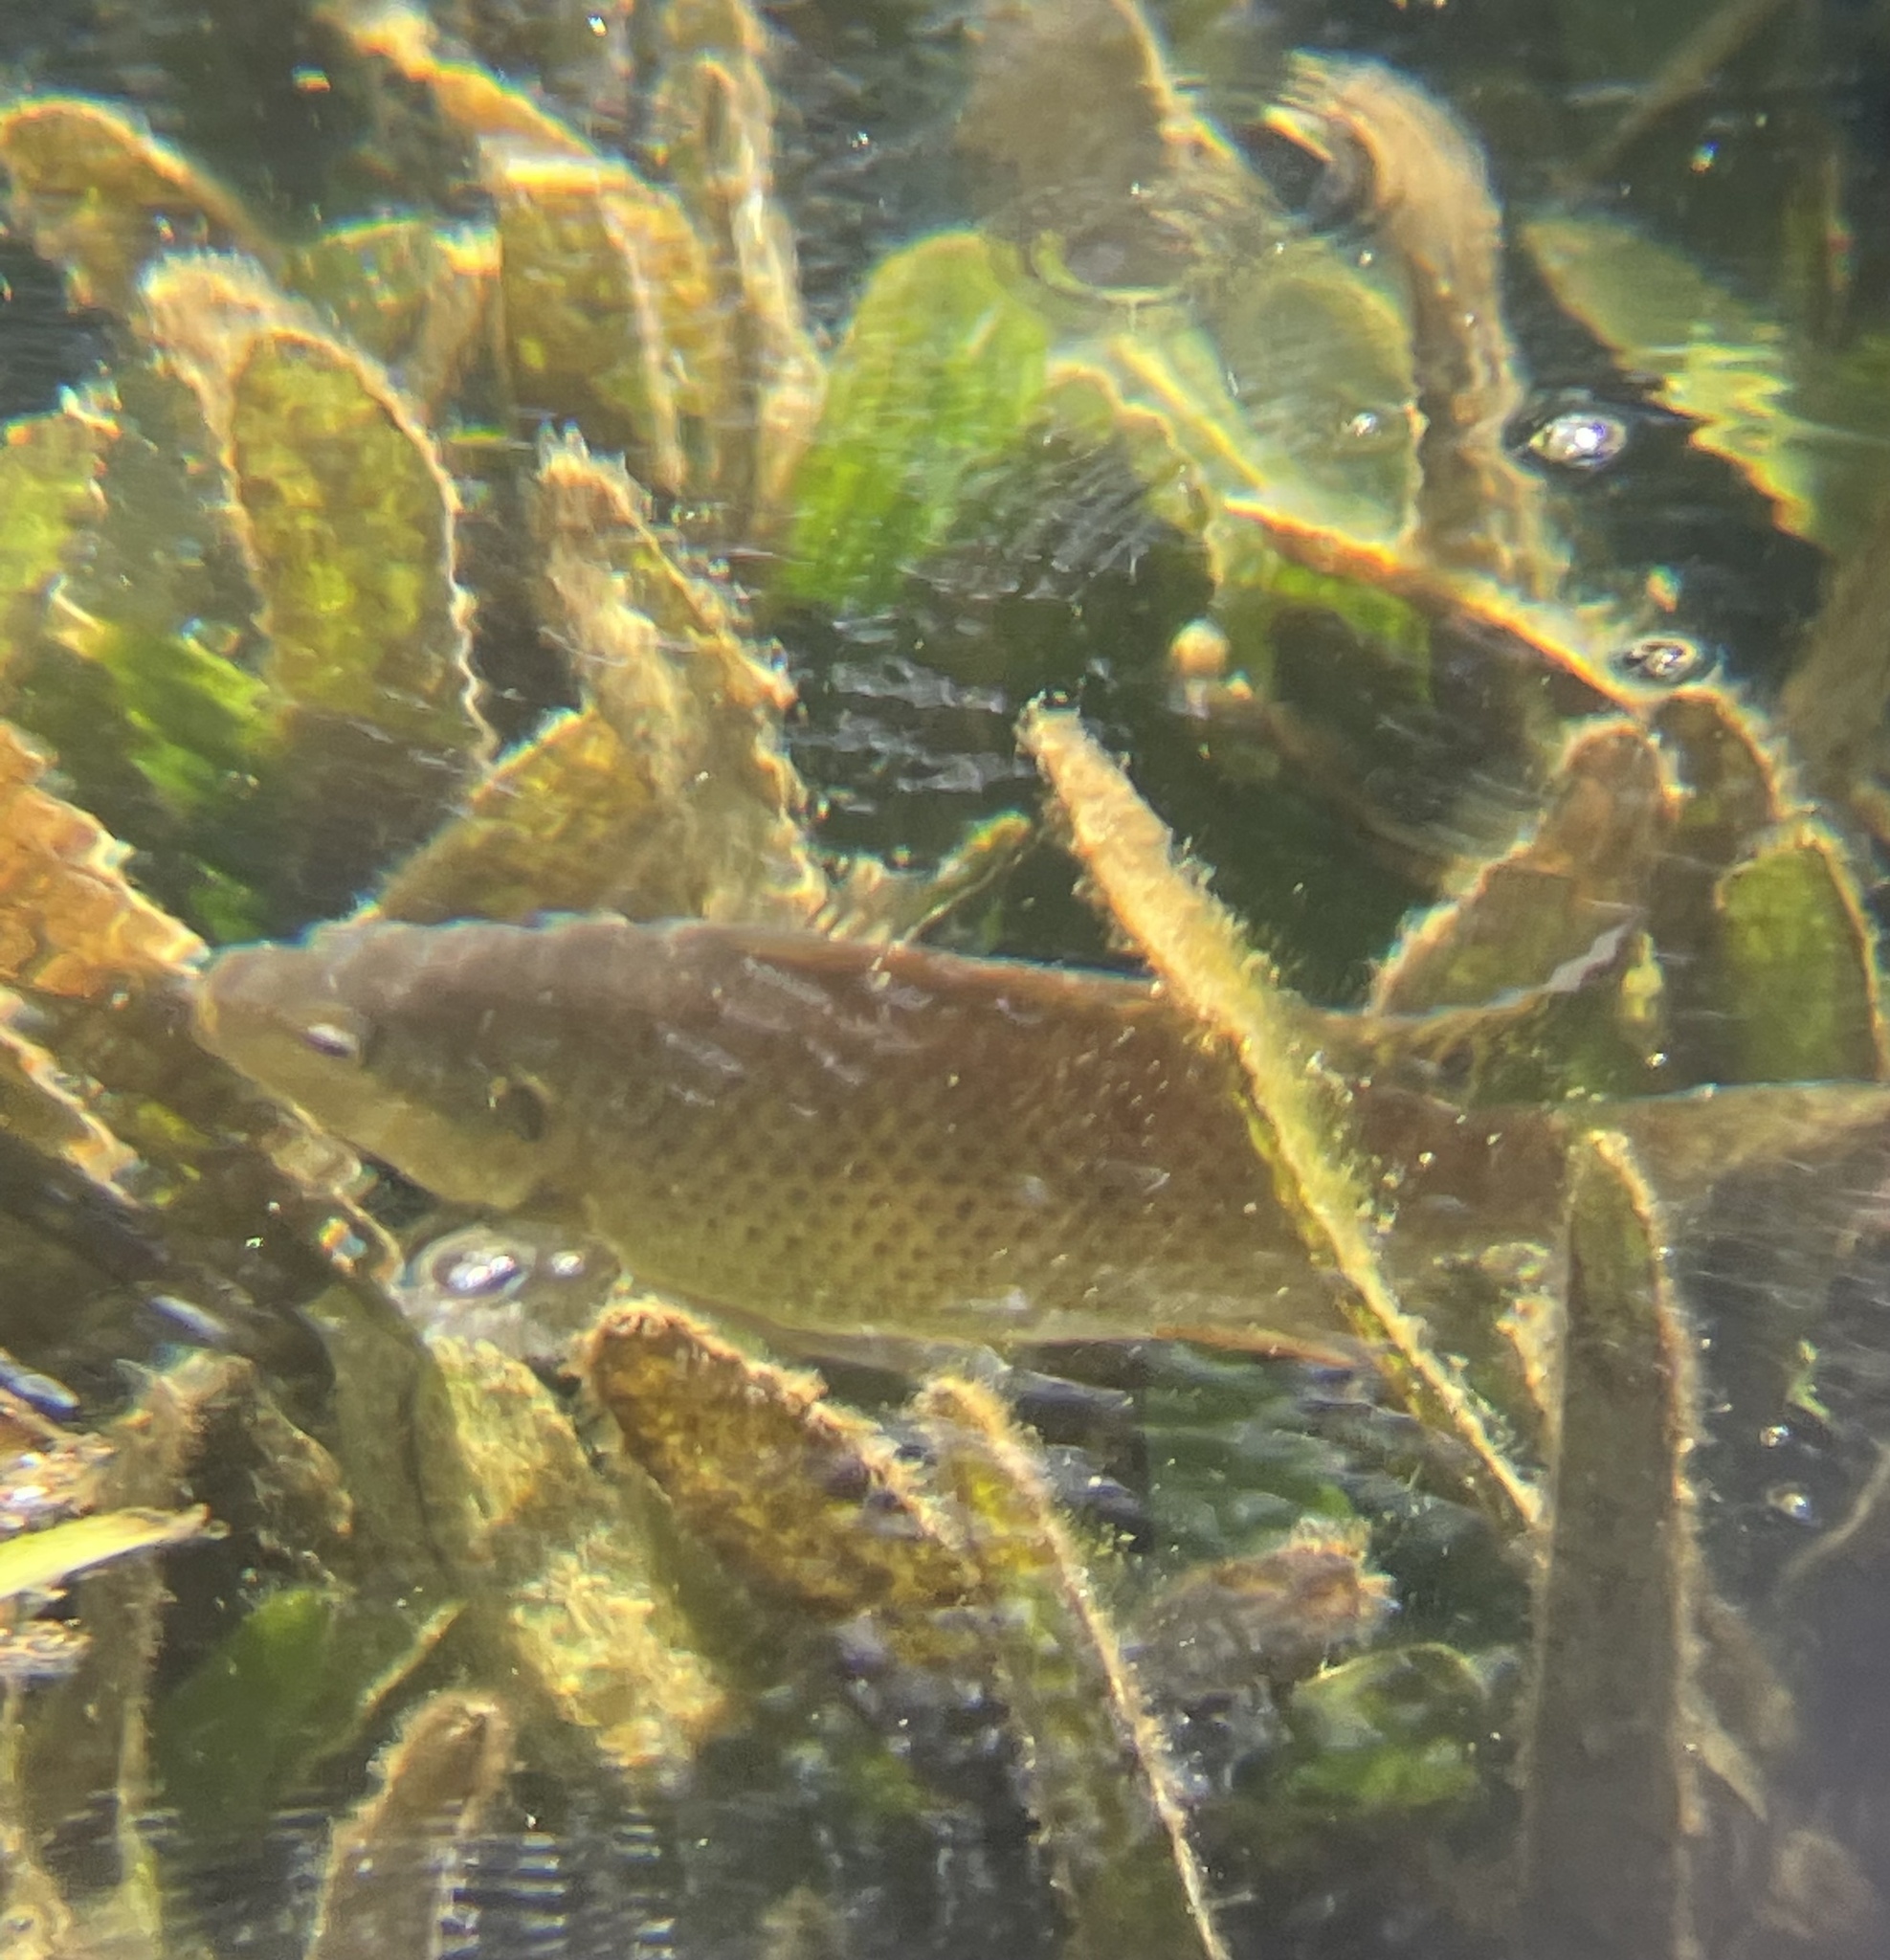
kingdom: Animalia
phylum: Chordata
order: Perciformes
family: Cichlidae
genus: Oreochromis
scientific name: Oreochromis aureus
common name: Blue tilapia
